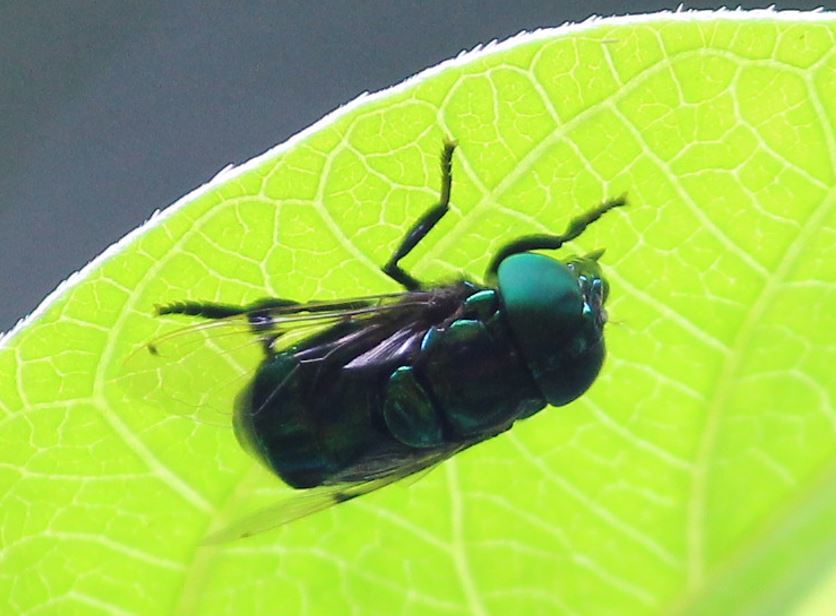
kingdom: Animalia
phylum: Arthropoda
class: Insecta
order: Diptera
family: Syrphidae
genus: Ornidia
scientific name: Ornidia obesa
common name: Syrphid fly
